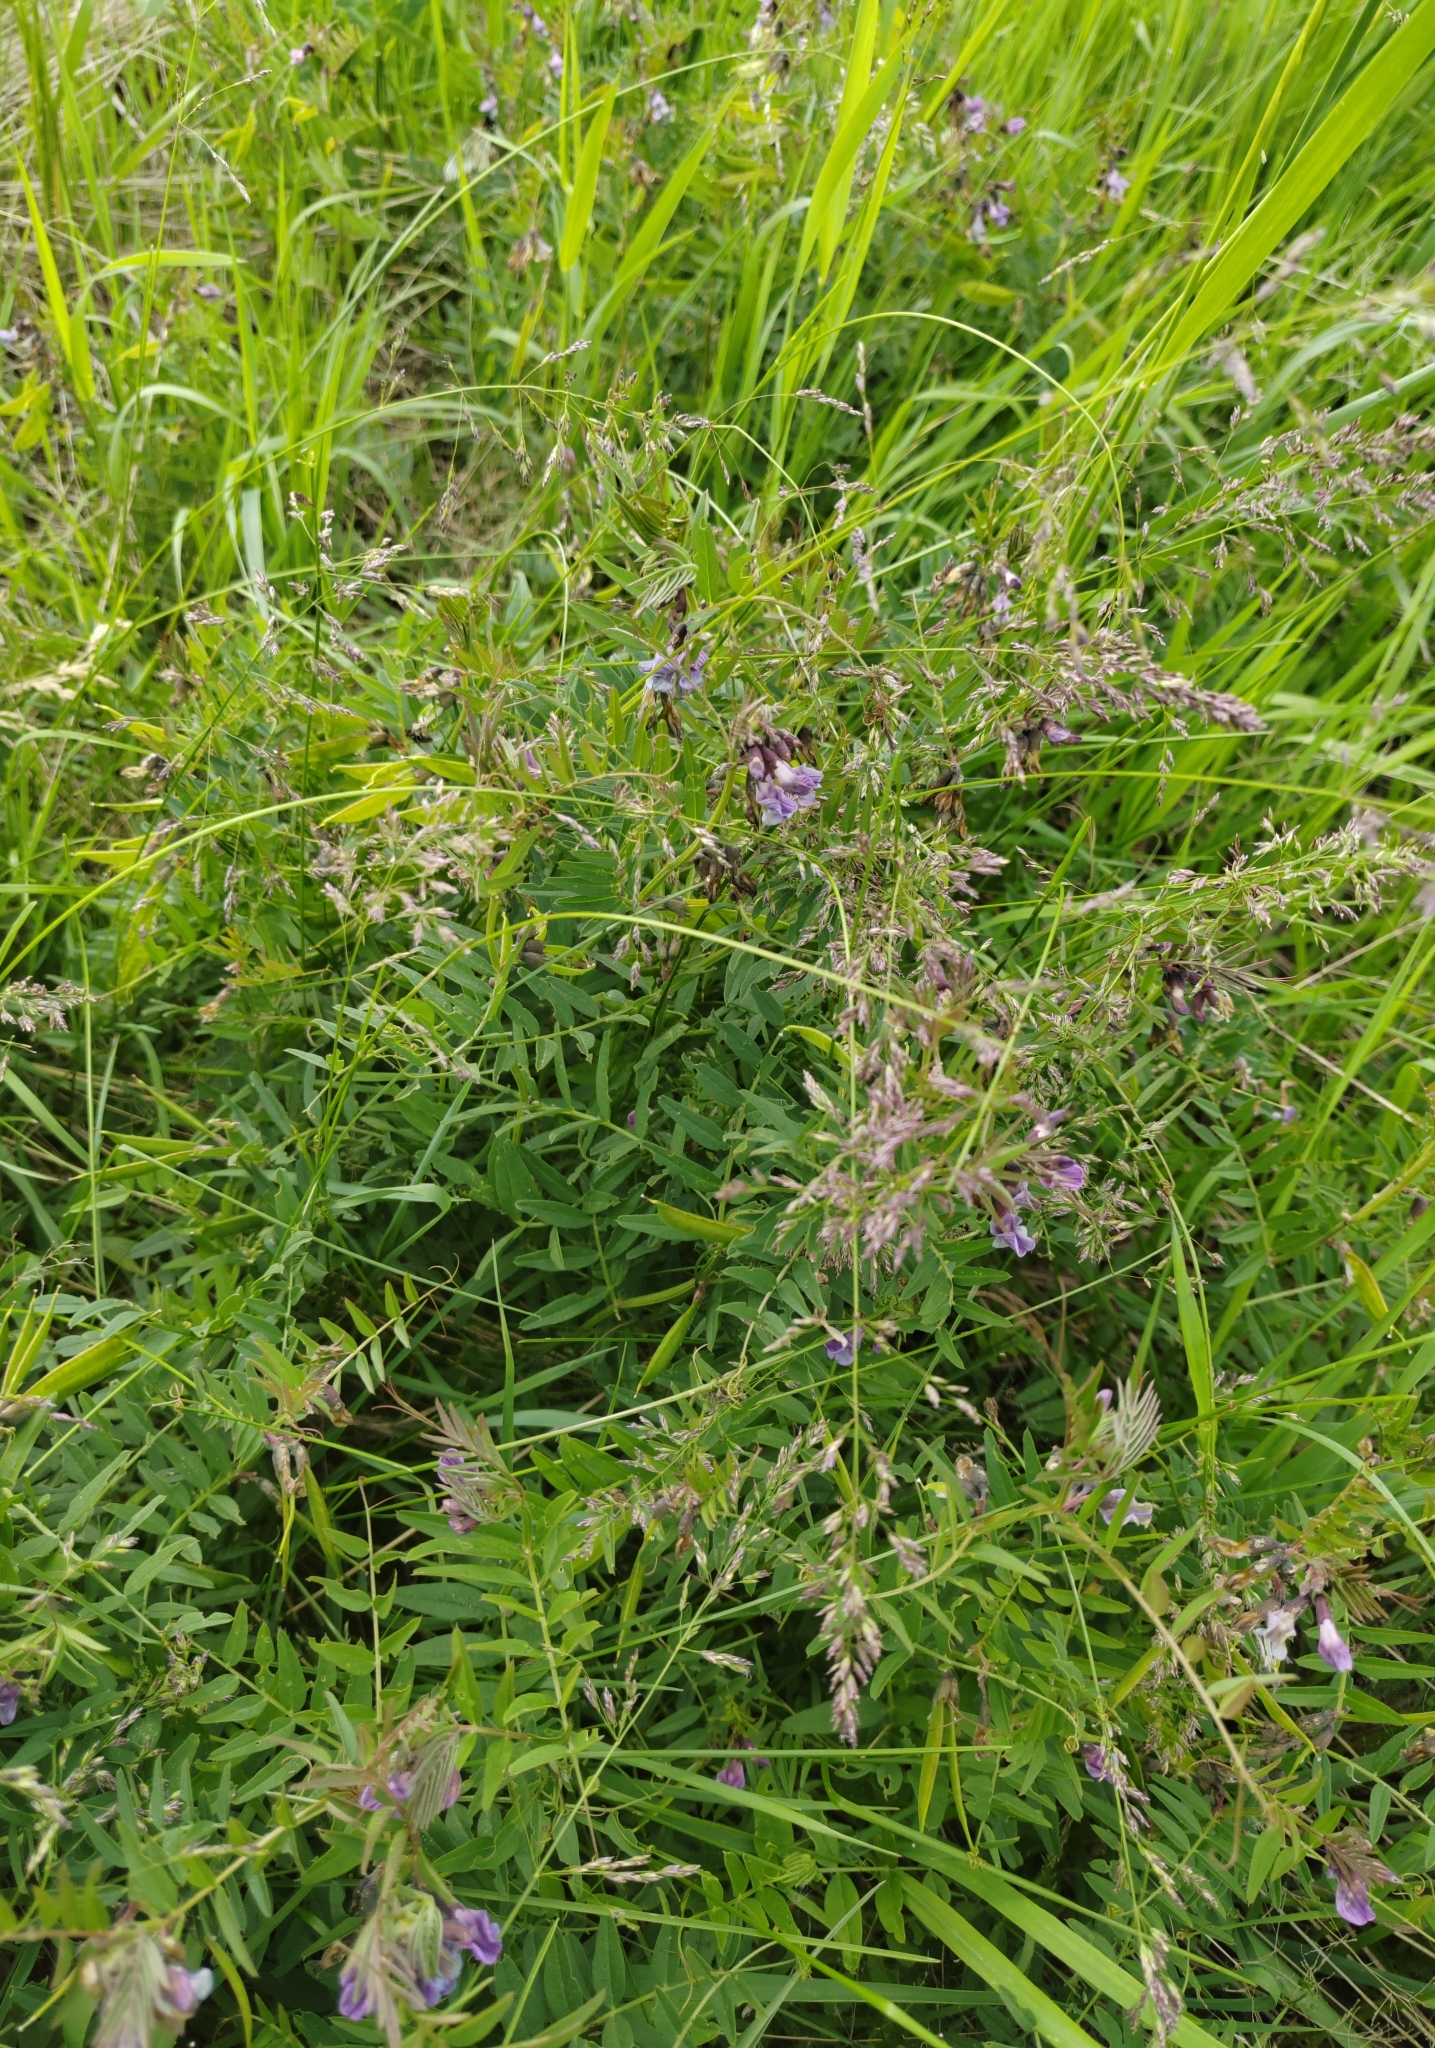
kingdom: Plantae
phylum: Tracheophyta
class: Magnoliopsida
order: Fabales
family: Fabaceae
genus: Vicia
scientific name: Vicia sepium
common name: Bush vetch
